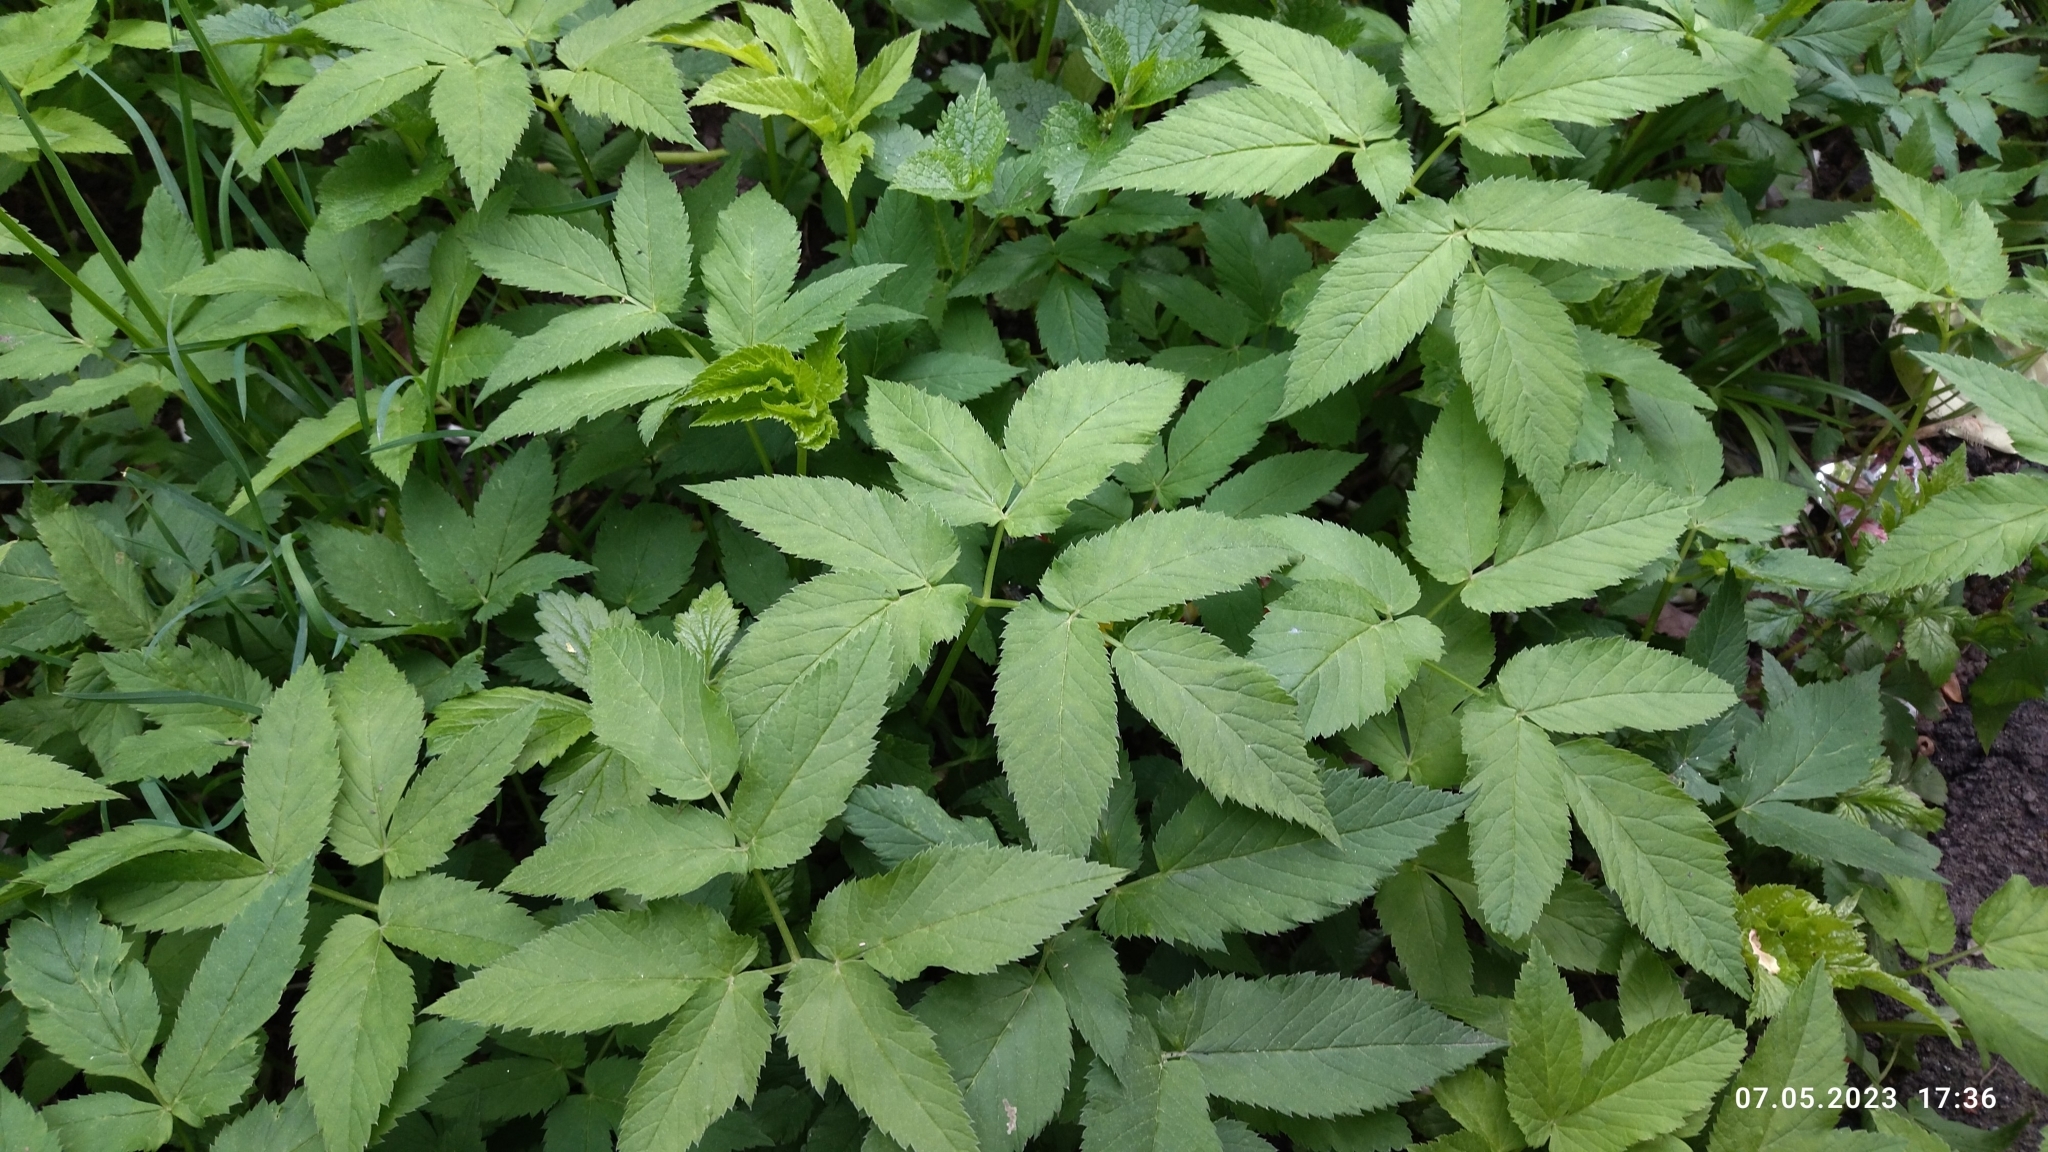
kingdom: Plantae
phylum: Tracheophyta
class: Magnoliopsida
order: Apiales
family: Apiaceae
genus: Aegopodium
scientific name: Aegopodium podagraria
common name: Ground-elder
